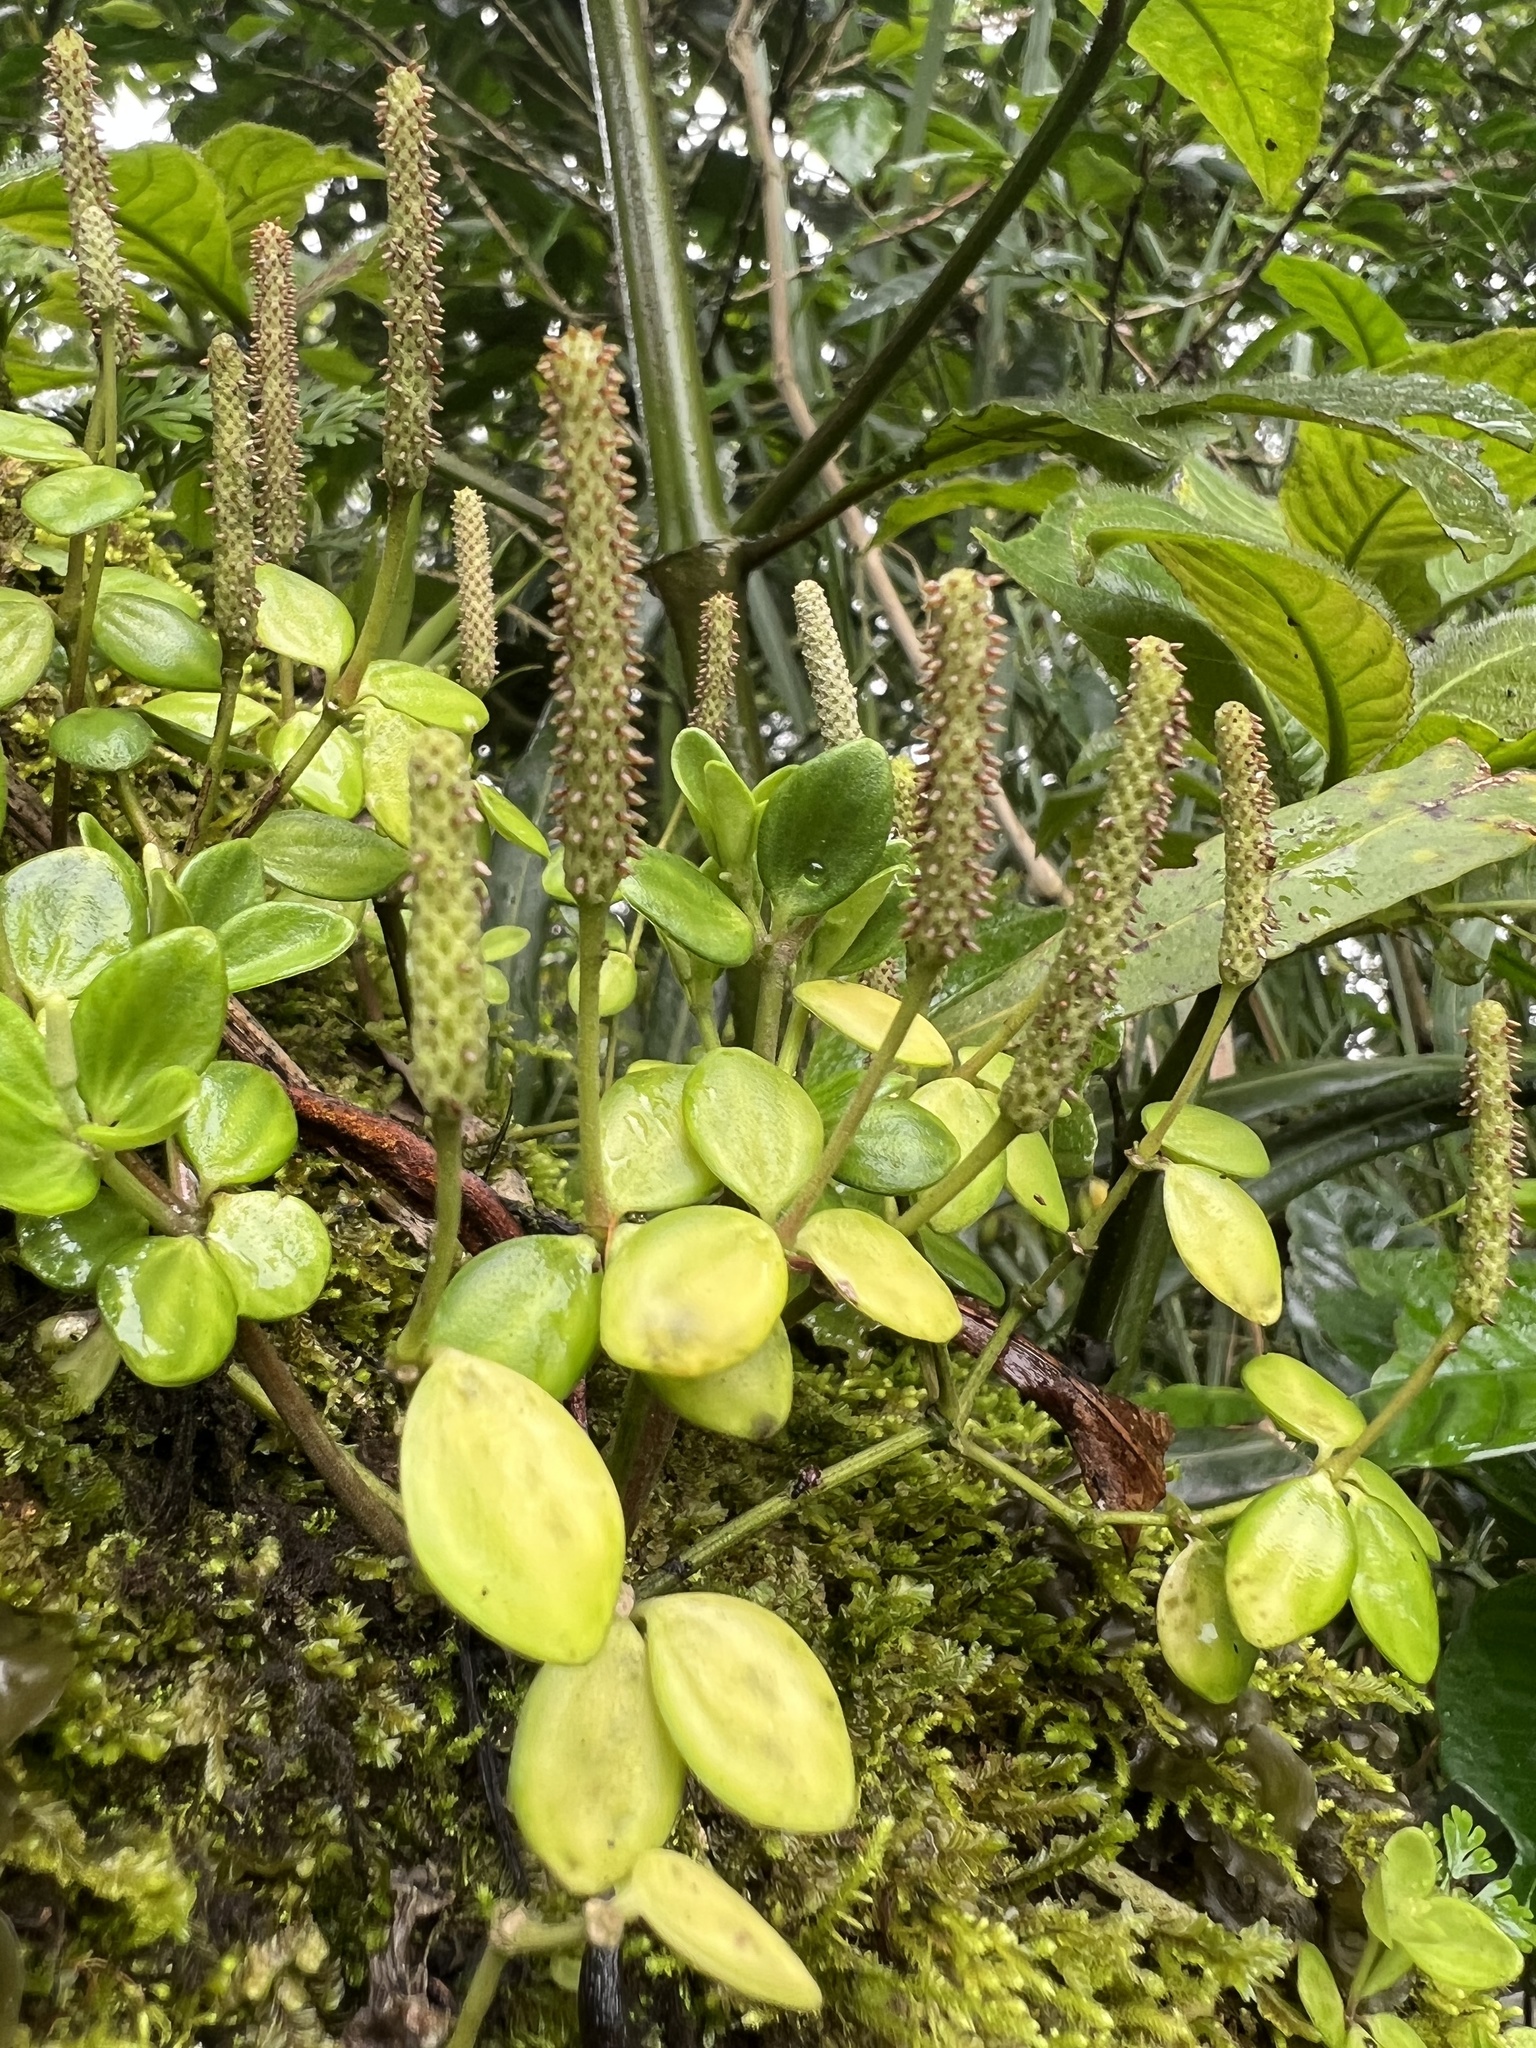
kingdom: Plantae
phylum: Tracheophyta
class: Magnoliopsida
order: Piperales
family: Piperaceae
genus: Peperomia
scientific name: Peperomia tetraphylla
